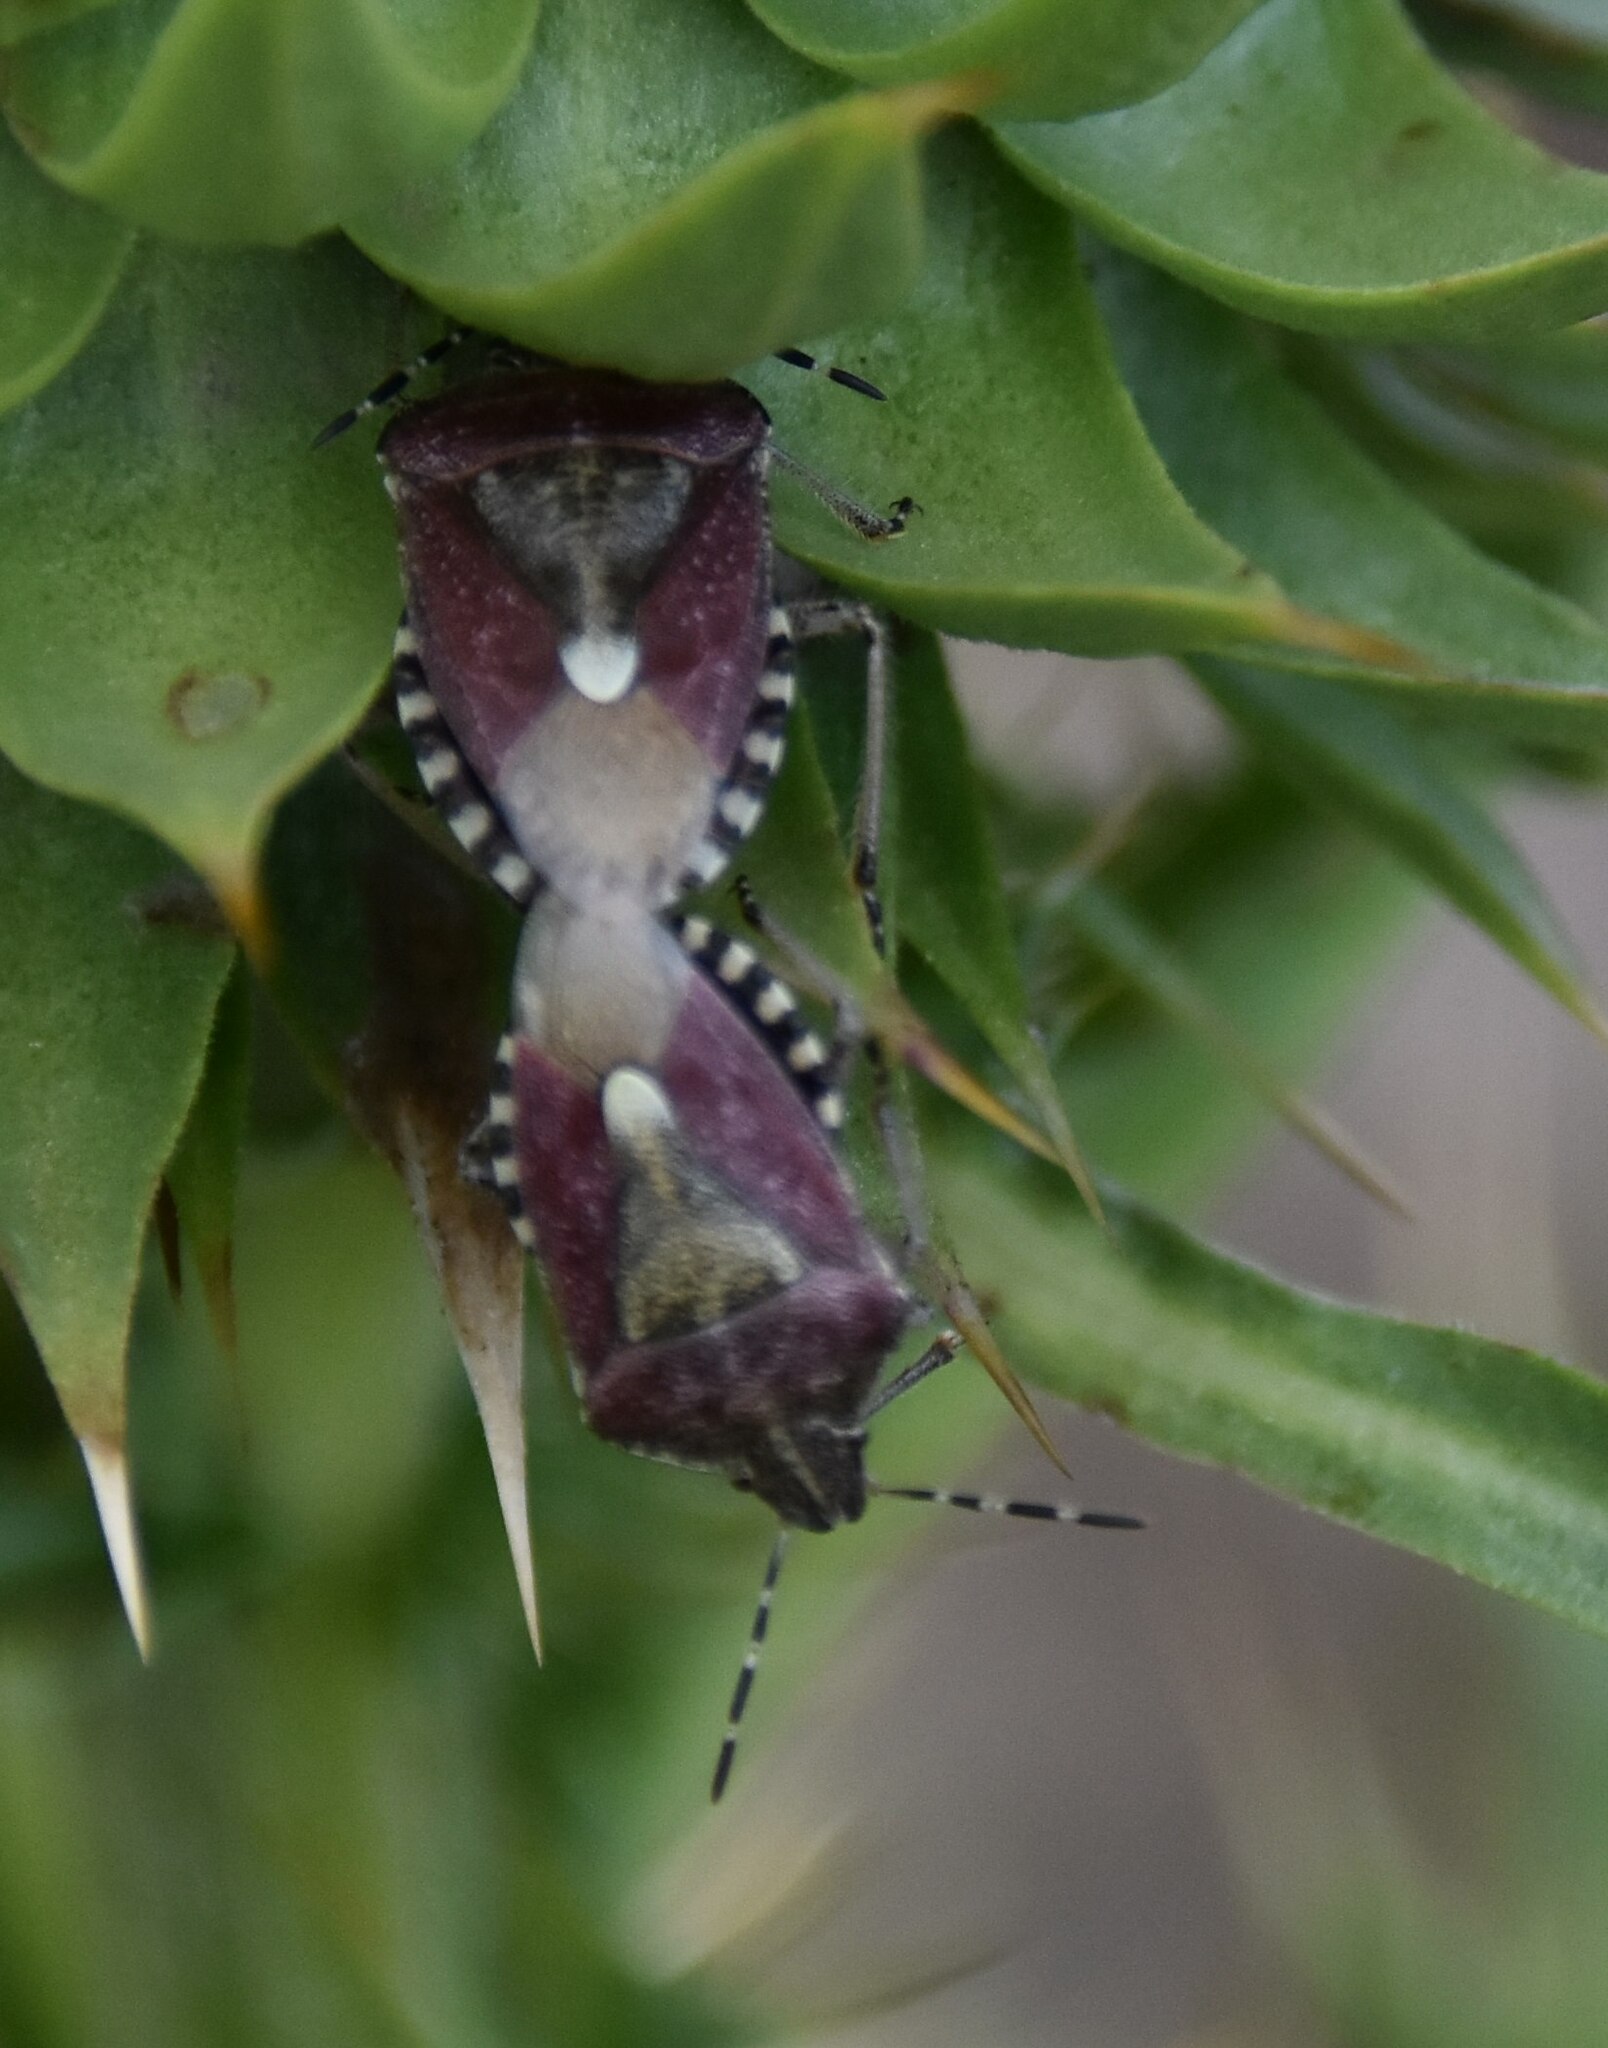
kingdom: Animalia
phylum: Arthropoda
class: Insecta
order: Hemiptera
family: Pentatomidae
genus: Dolycoris
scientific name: Dolycoris baccarum
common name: Sloe bug
